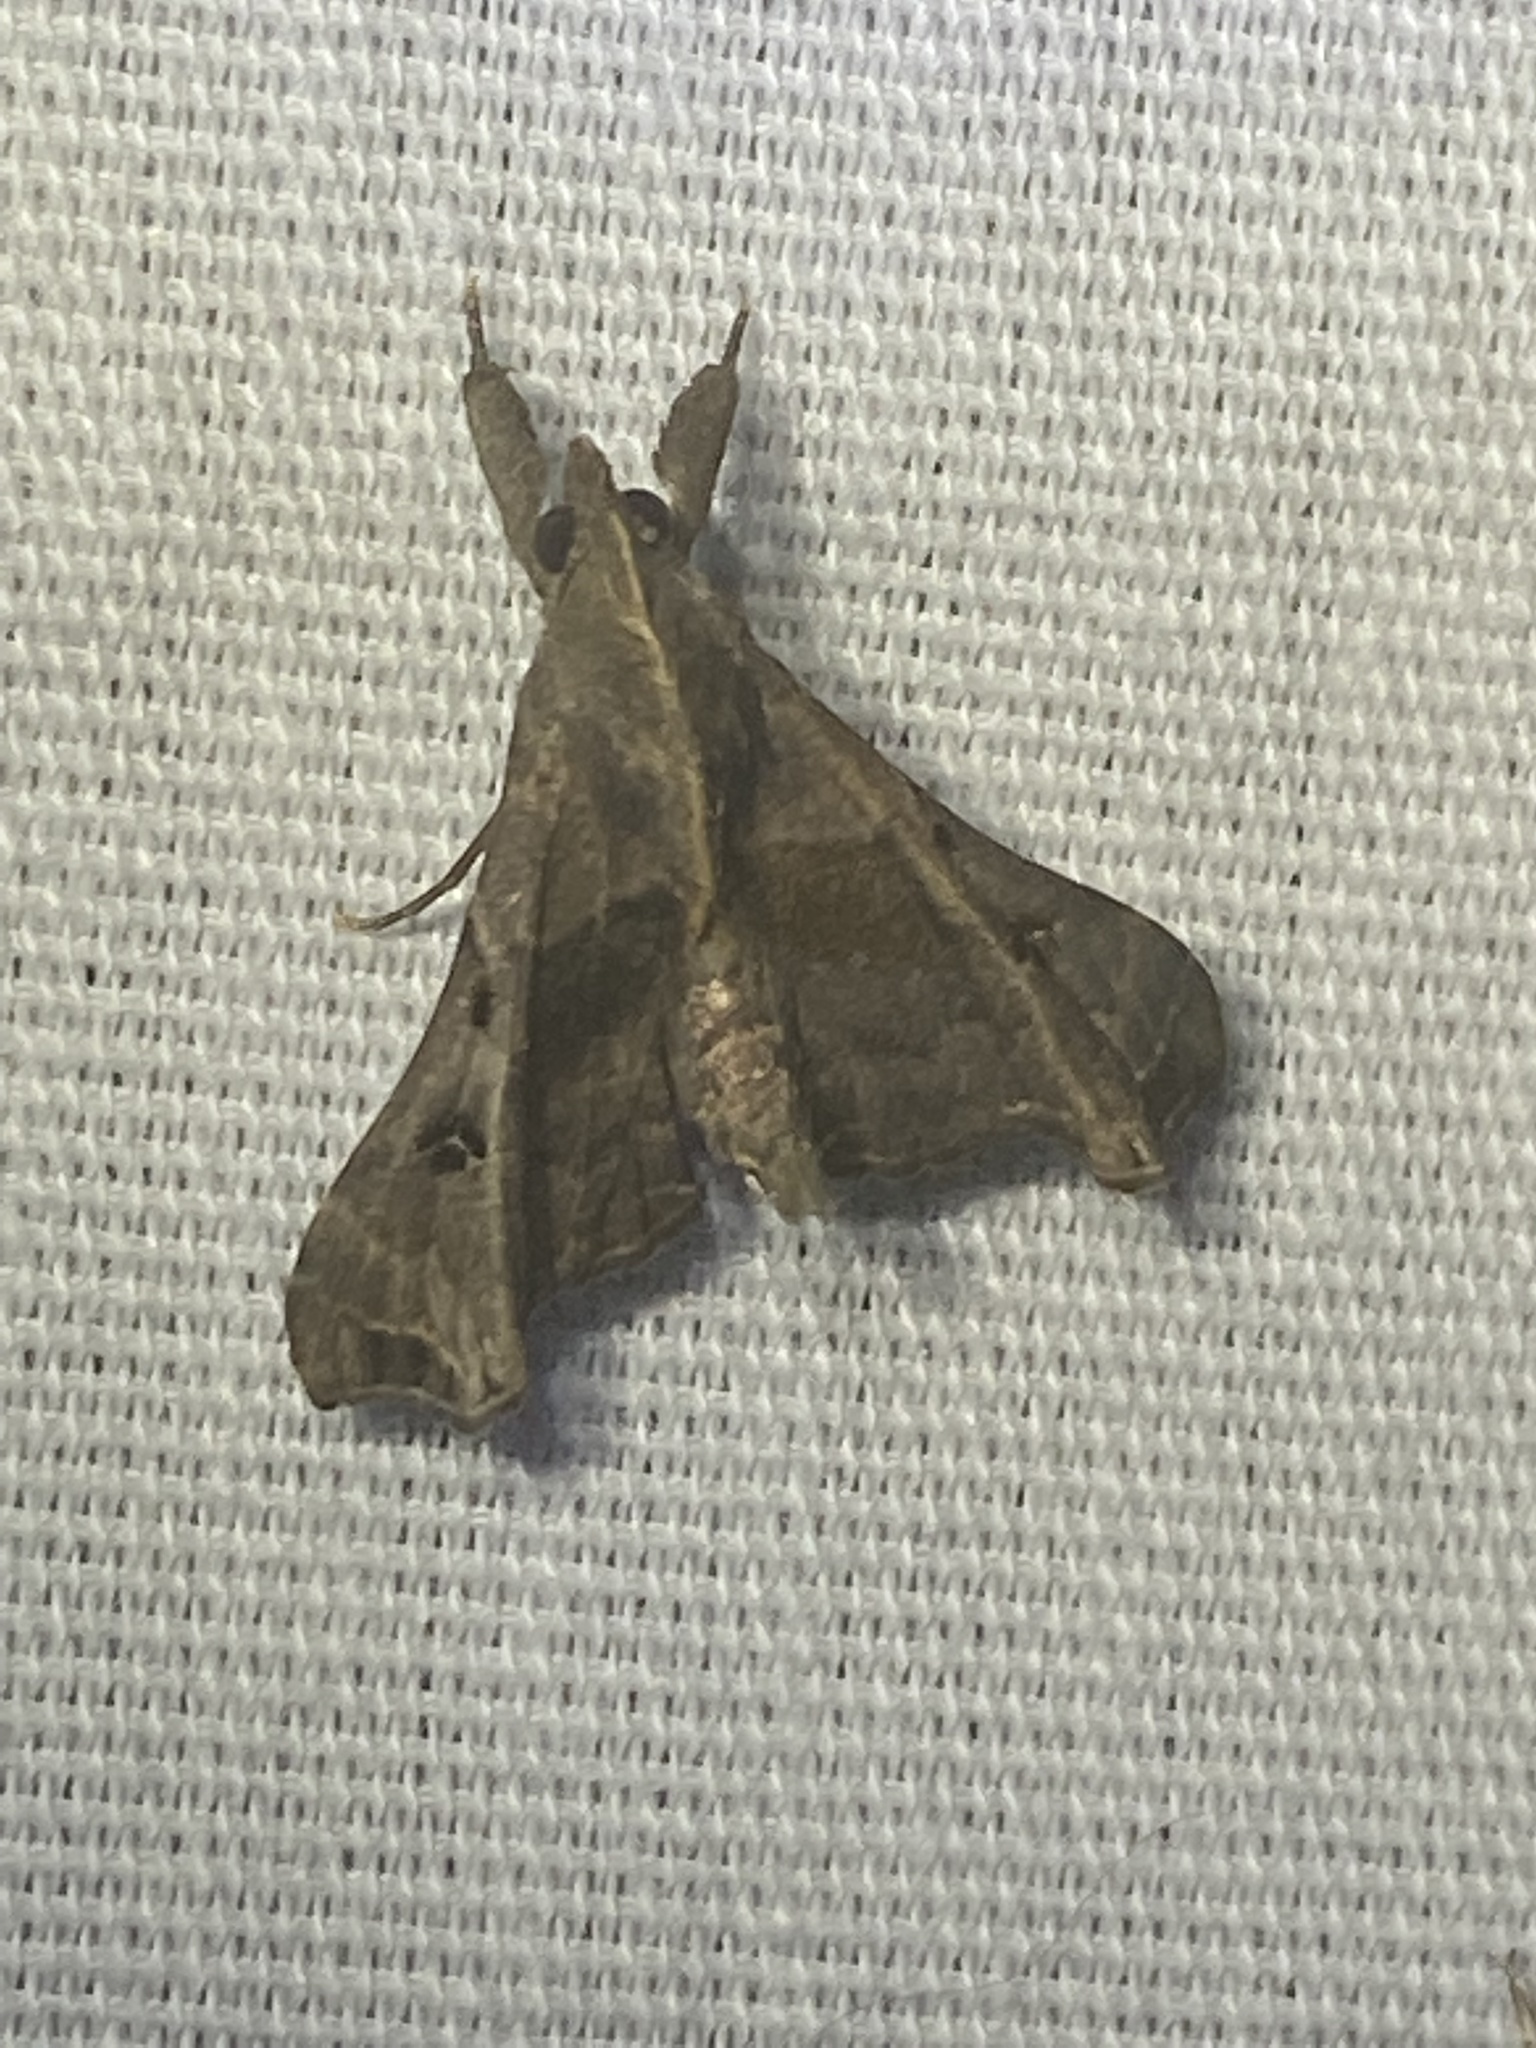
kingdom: Animalia
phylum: Arthropoda
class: Insecta
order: Lepidoptera
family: Erebidae
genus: Palthis
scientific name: Palthis asopialis
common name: Faint-spotted palthis moth
